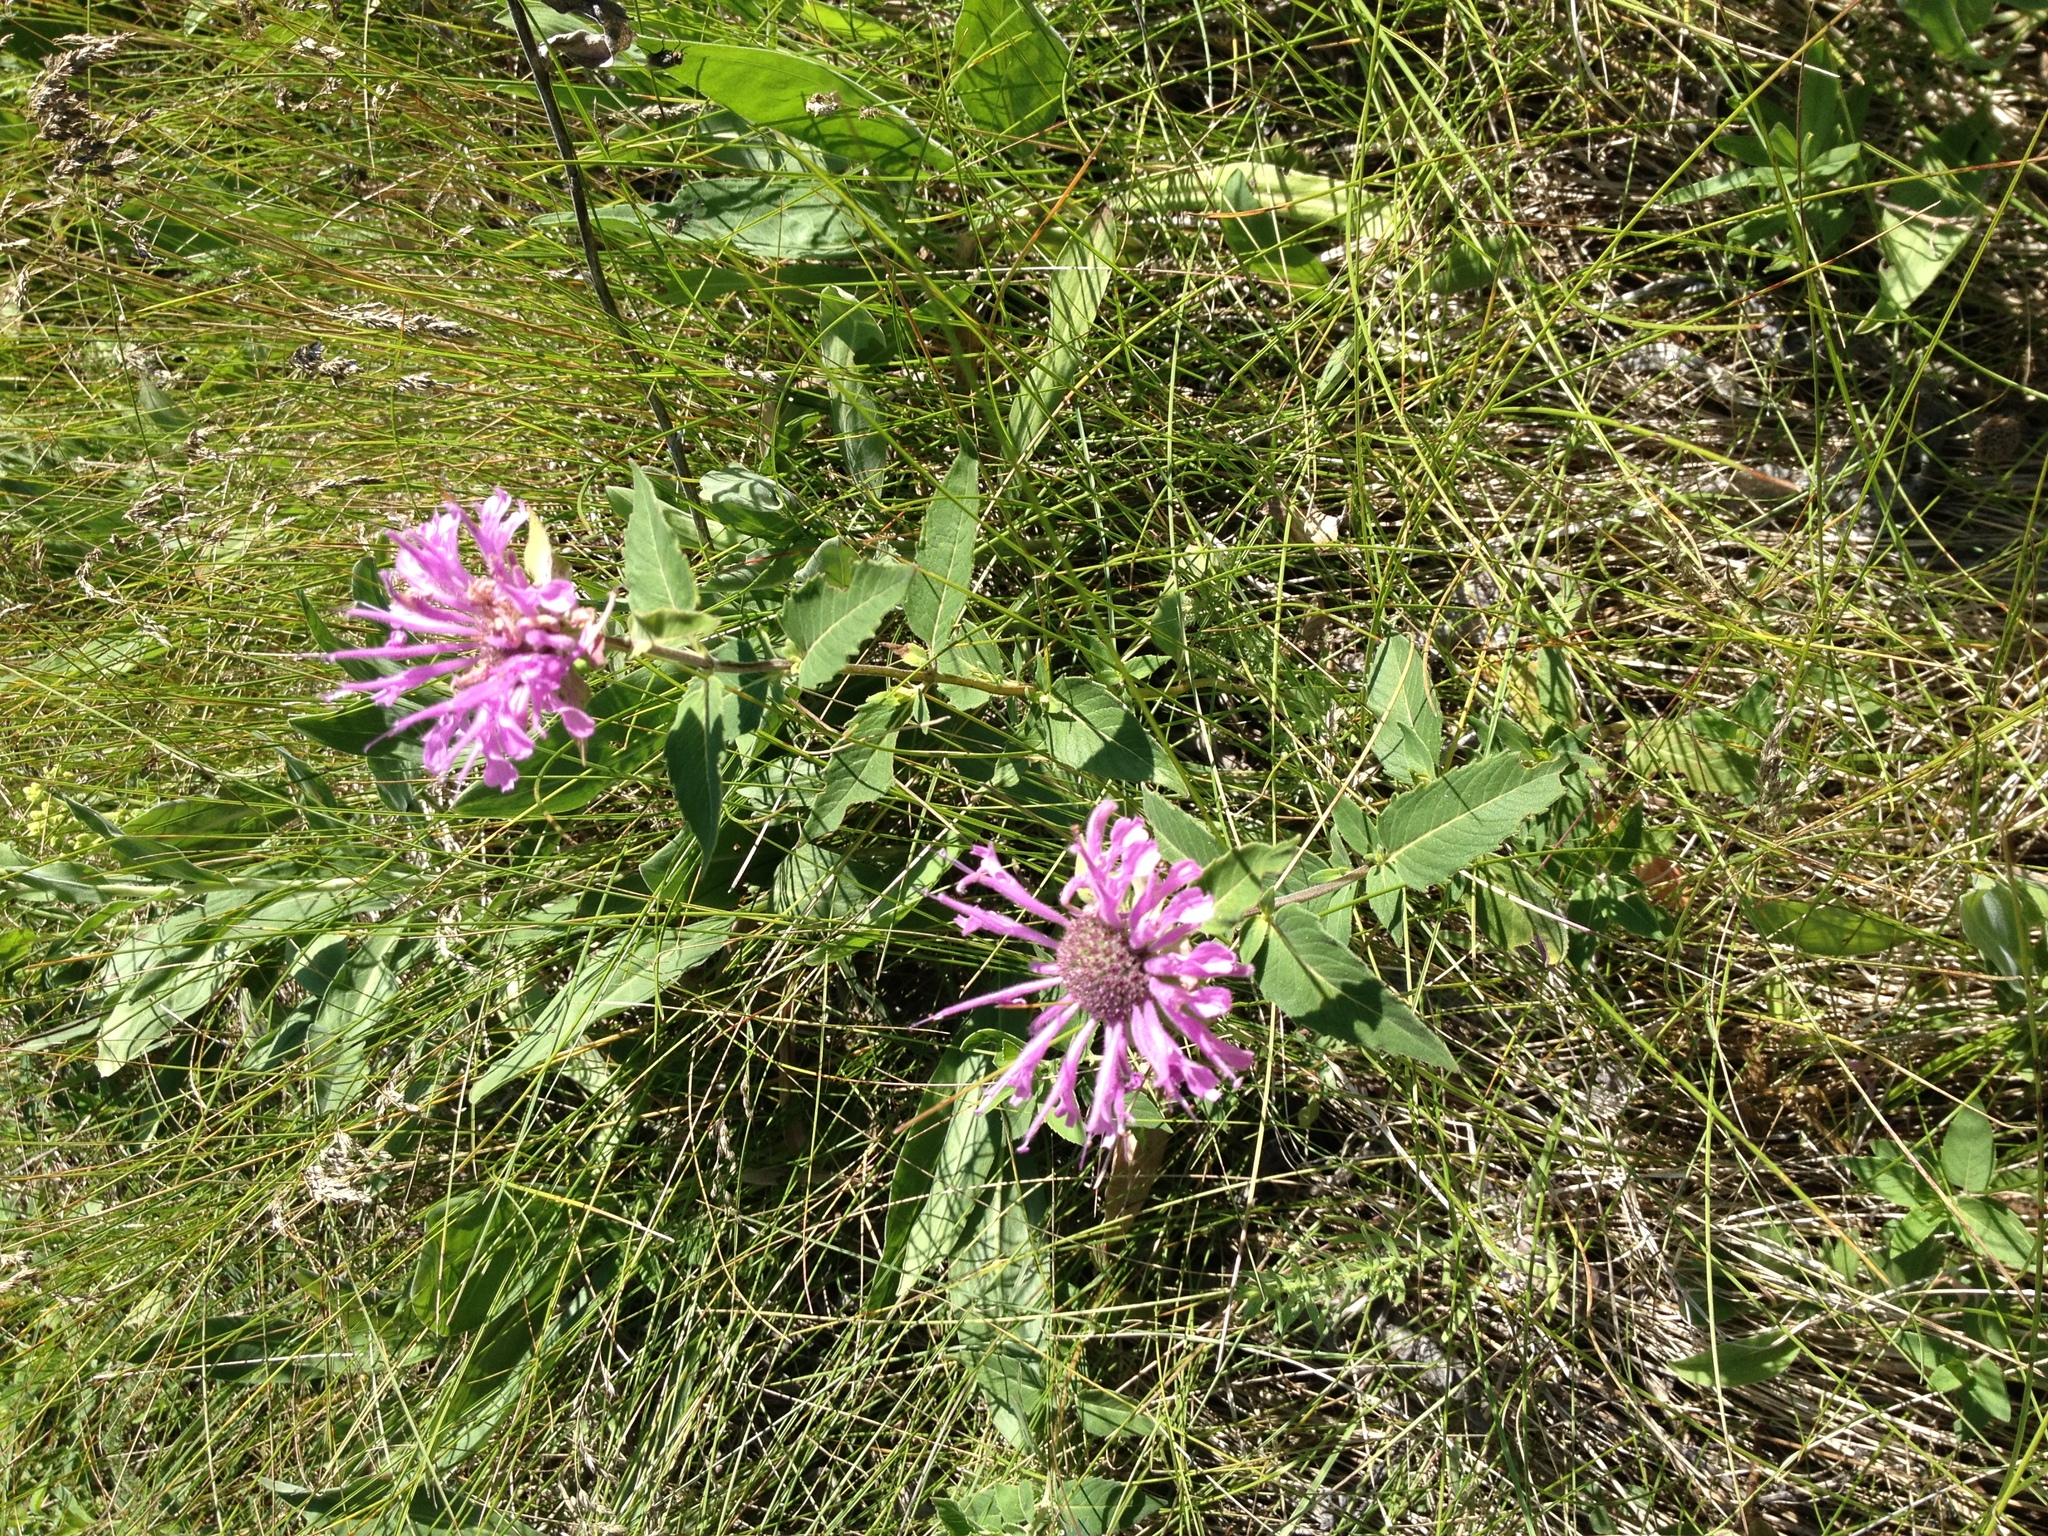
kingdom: Plantae
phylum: Tracheophyta
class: Magnoliopsida
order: Lamiales
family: Lamiaceae
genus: Monarda
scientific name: Monarda fistulosa
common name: Purple beebalm
